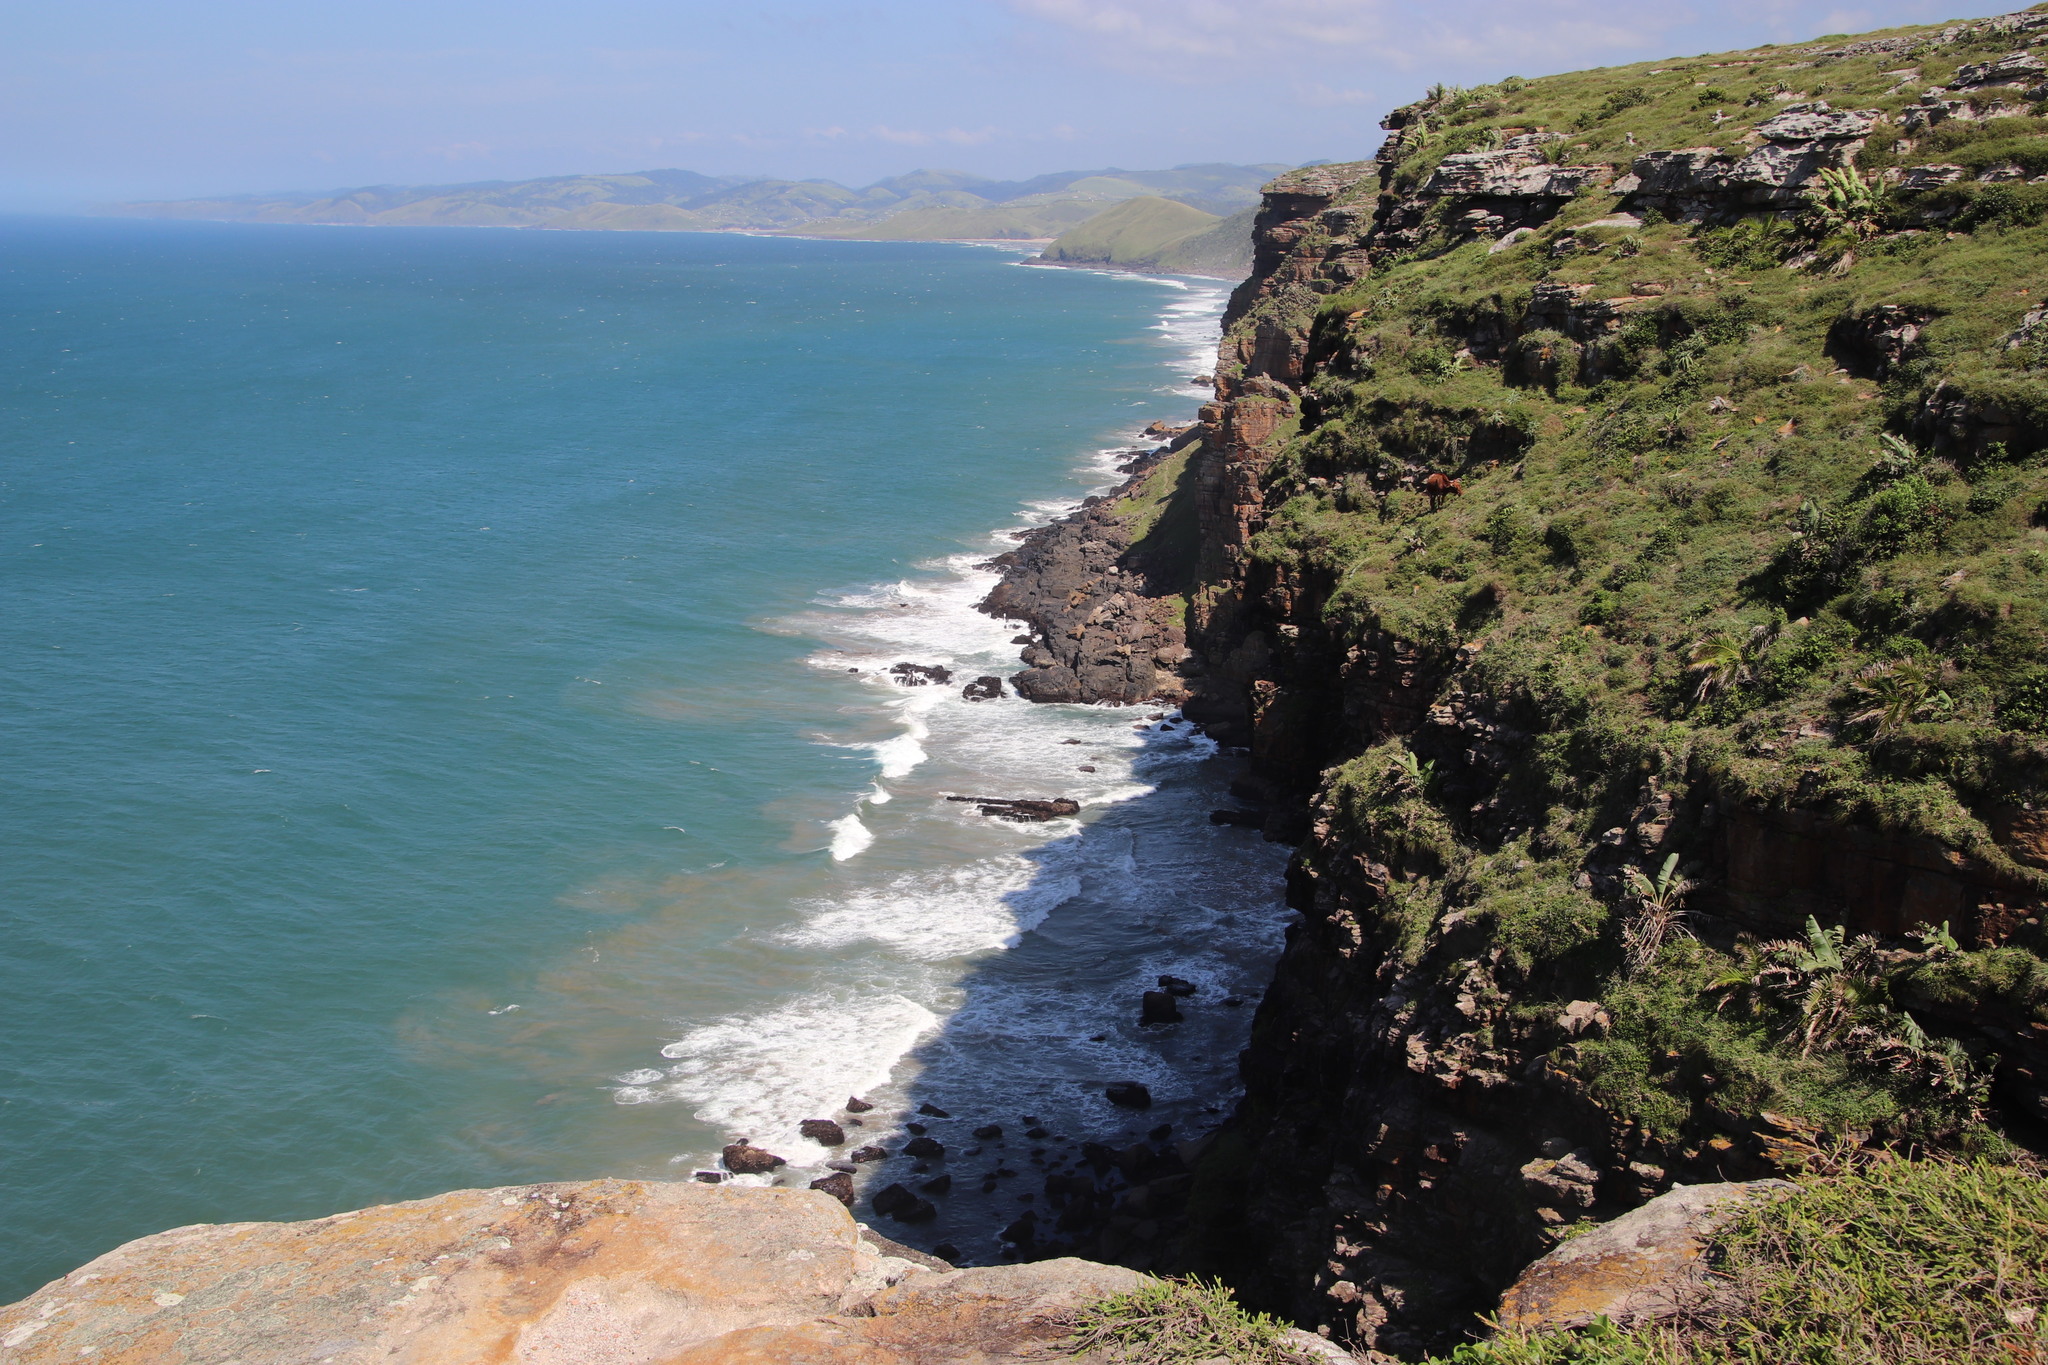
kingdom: Plantae
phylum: Tracheophyta
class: Liliopsida
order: Zingiberales
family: Strelitziaceae
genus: Strelitzia
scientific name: Strelitzia nicolai
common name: Bird-of-paradise tree
